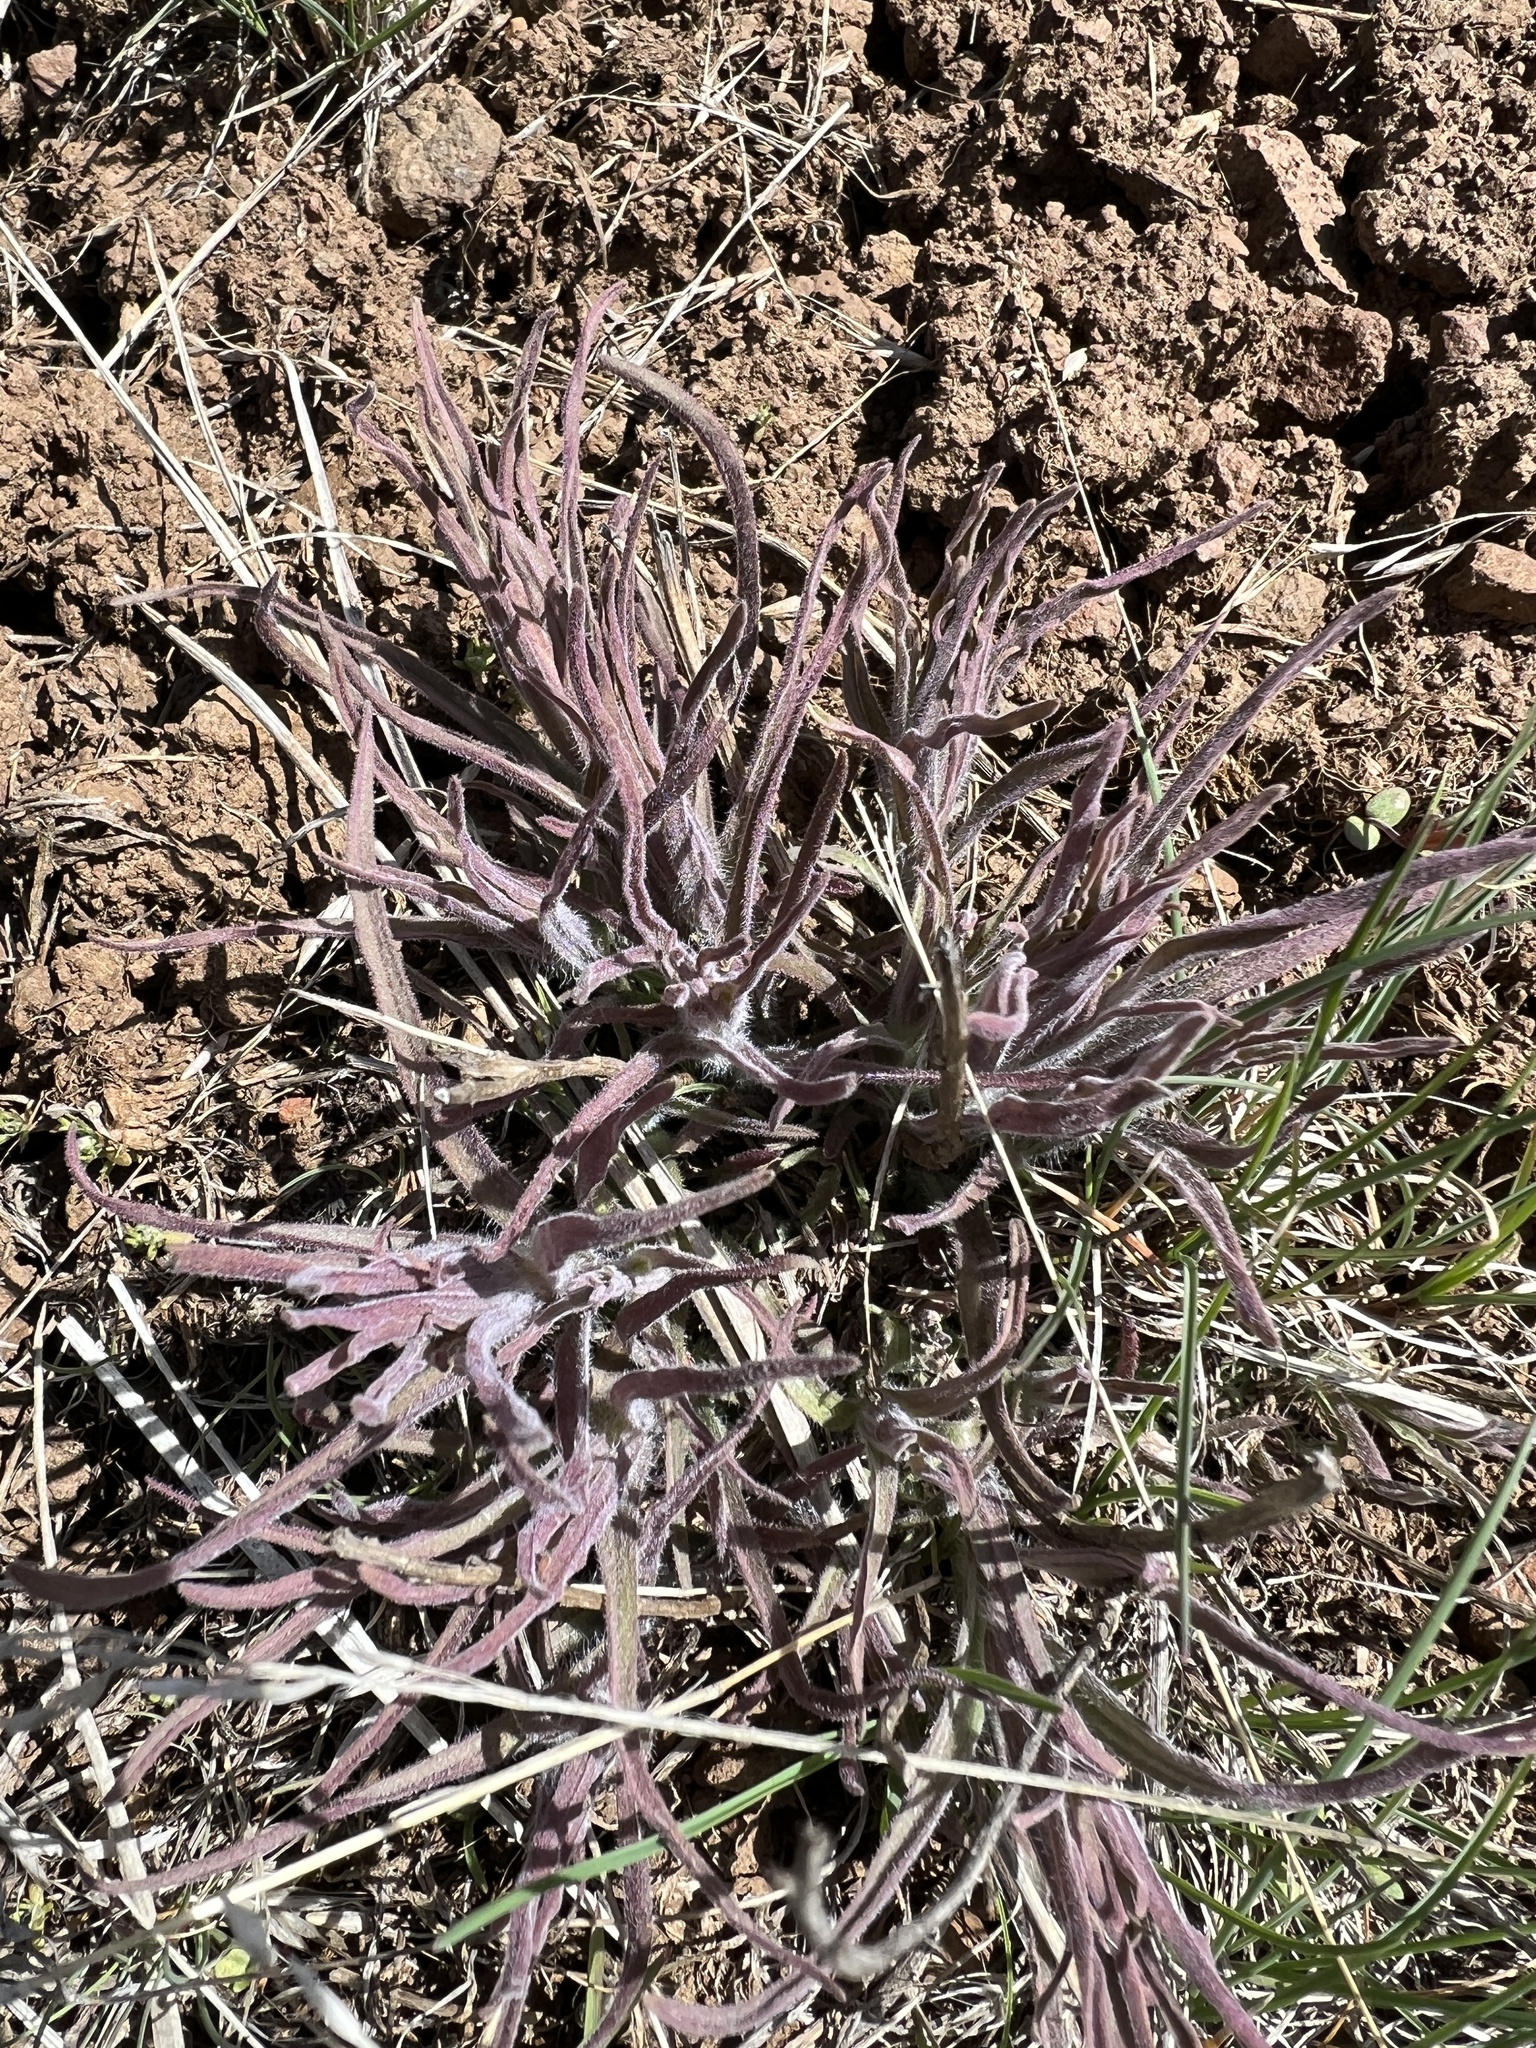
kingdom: Plantae
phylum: Tracheophyta
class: Magnoliopsida
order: Lamiales
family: Orobanchaceae
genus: Castilleja
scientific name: Castilleja thompsonii
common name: Thompson's paintbrush
